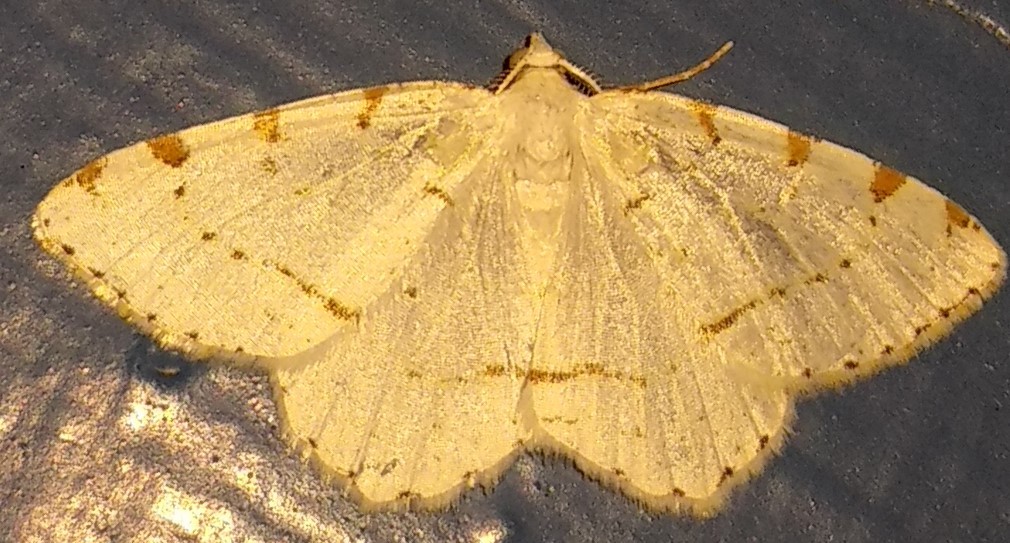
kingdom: Animalia
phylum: Arthropoda
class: Insecta
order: Lepidoptera
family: Geometridae
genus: Macaria
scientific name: Macaria pustularia
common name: Lesser maple spanworm moth
